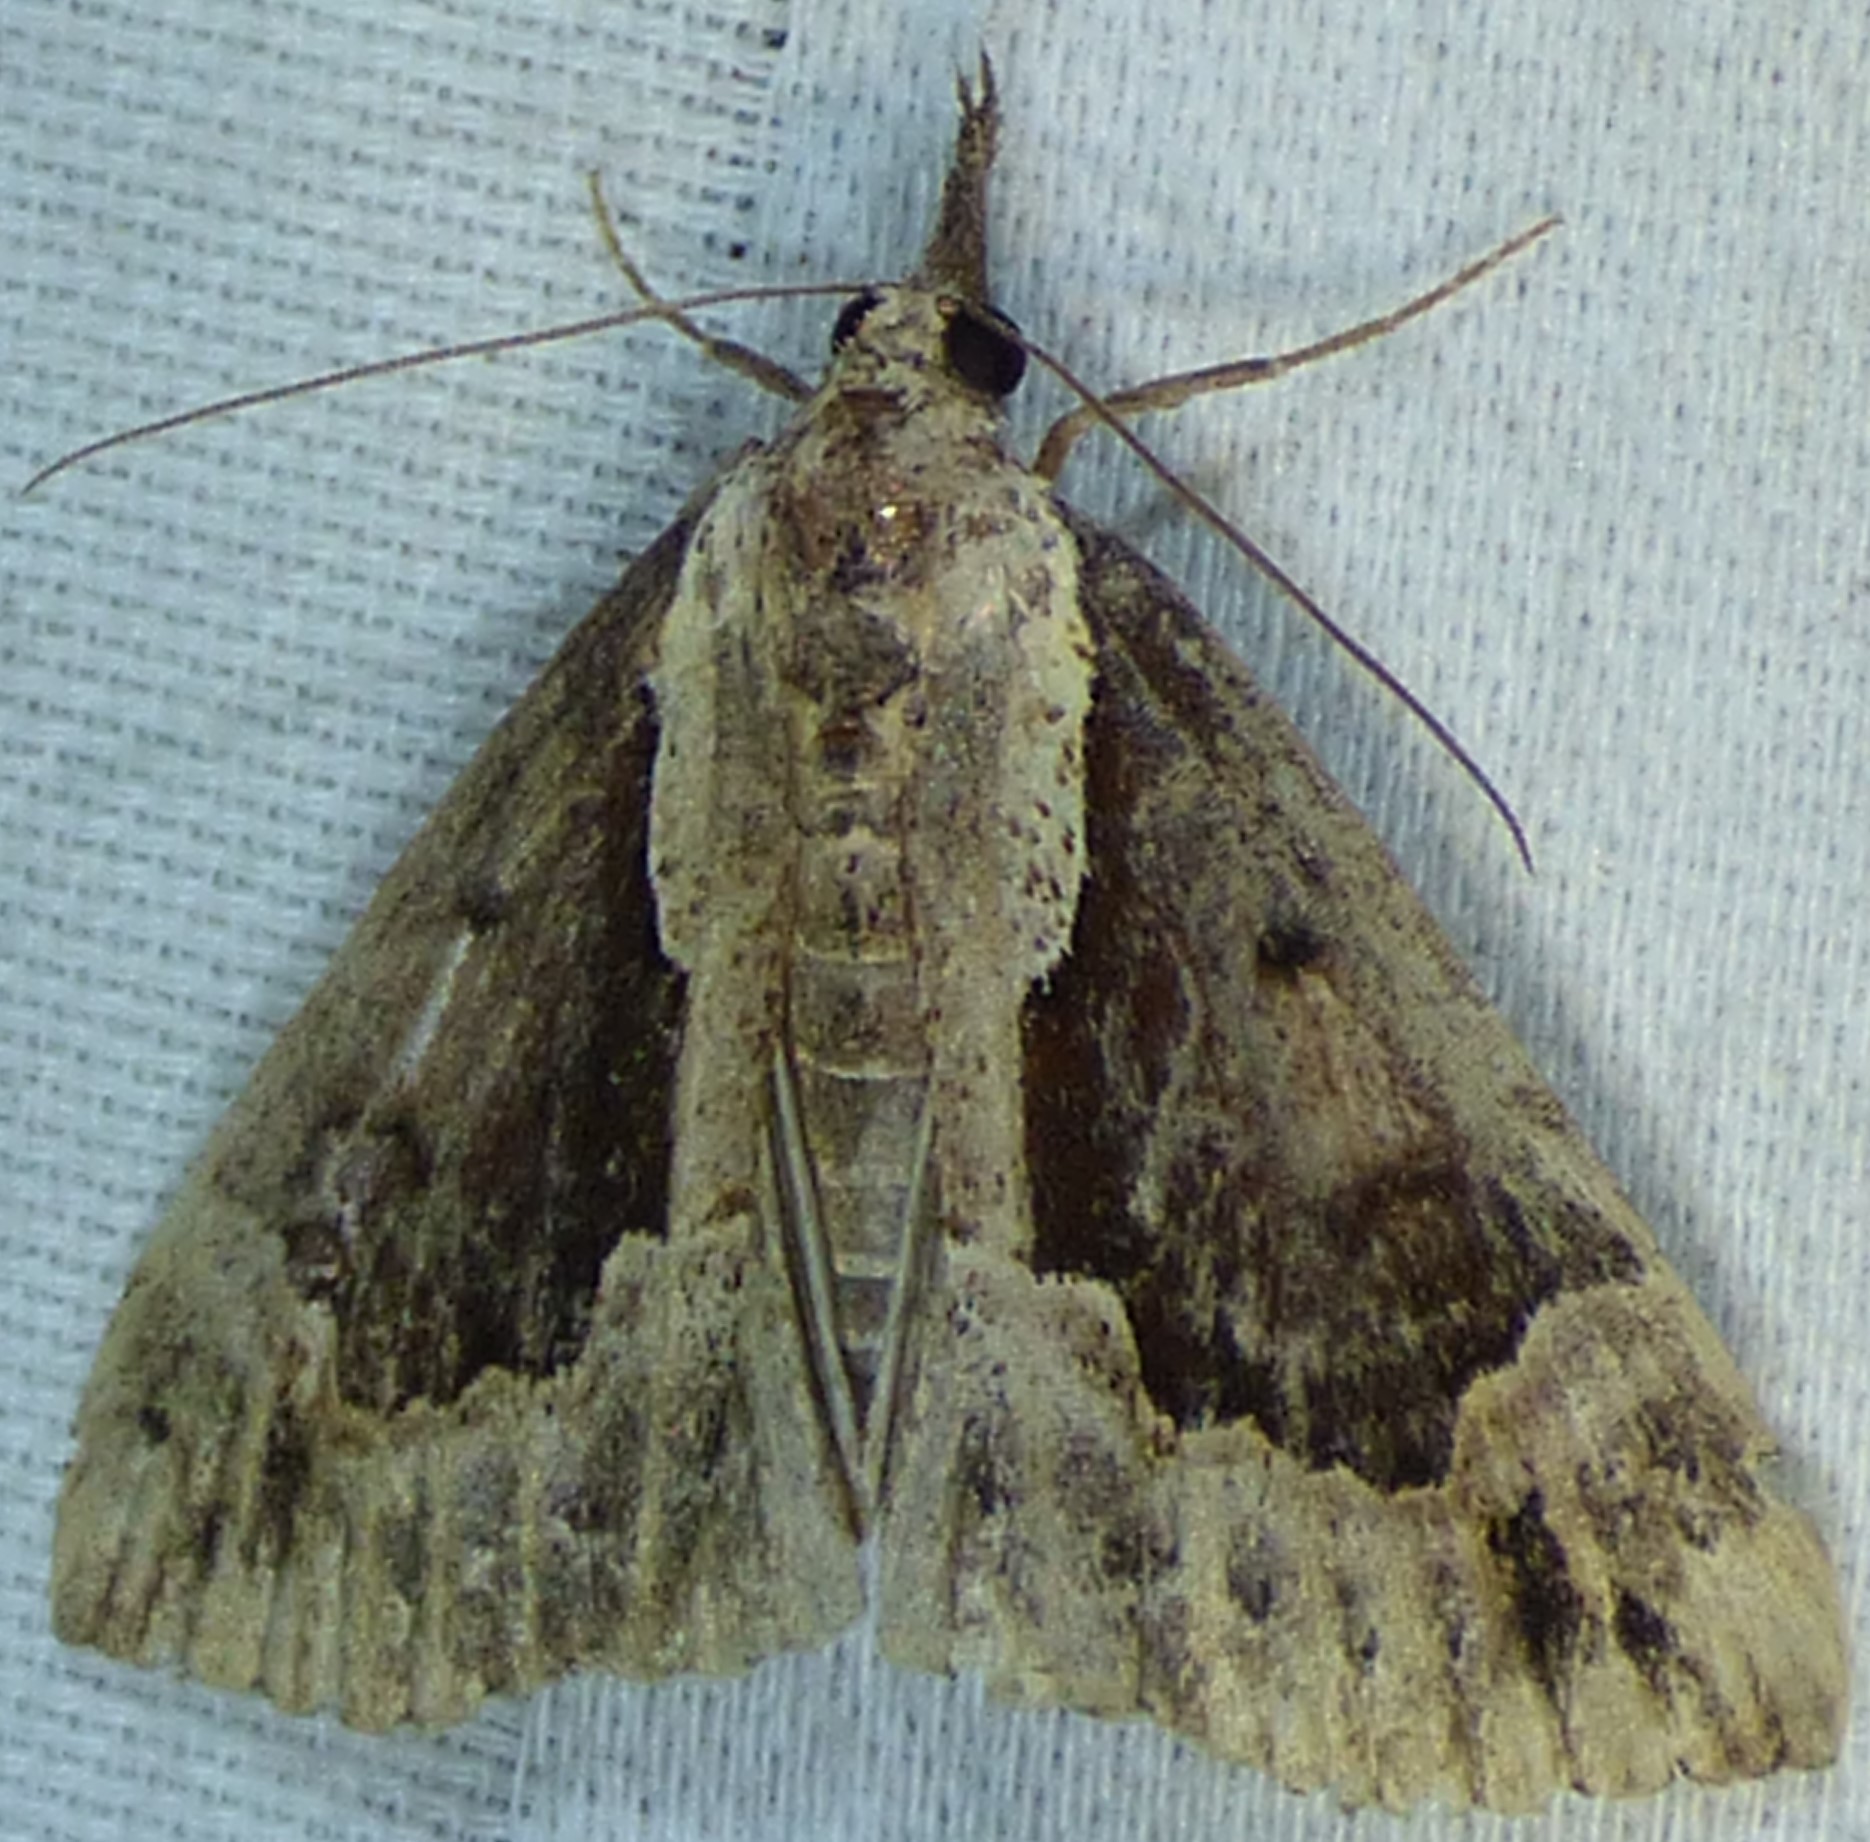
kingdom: Animalia
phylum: Arthropoda
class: Insecta
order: Lepidoptera
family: Erebidae
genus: Hypena
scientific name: Hypena baltimoralis
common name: Baltimore snout
